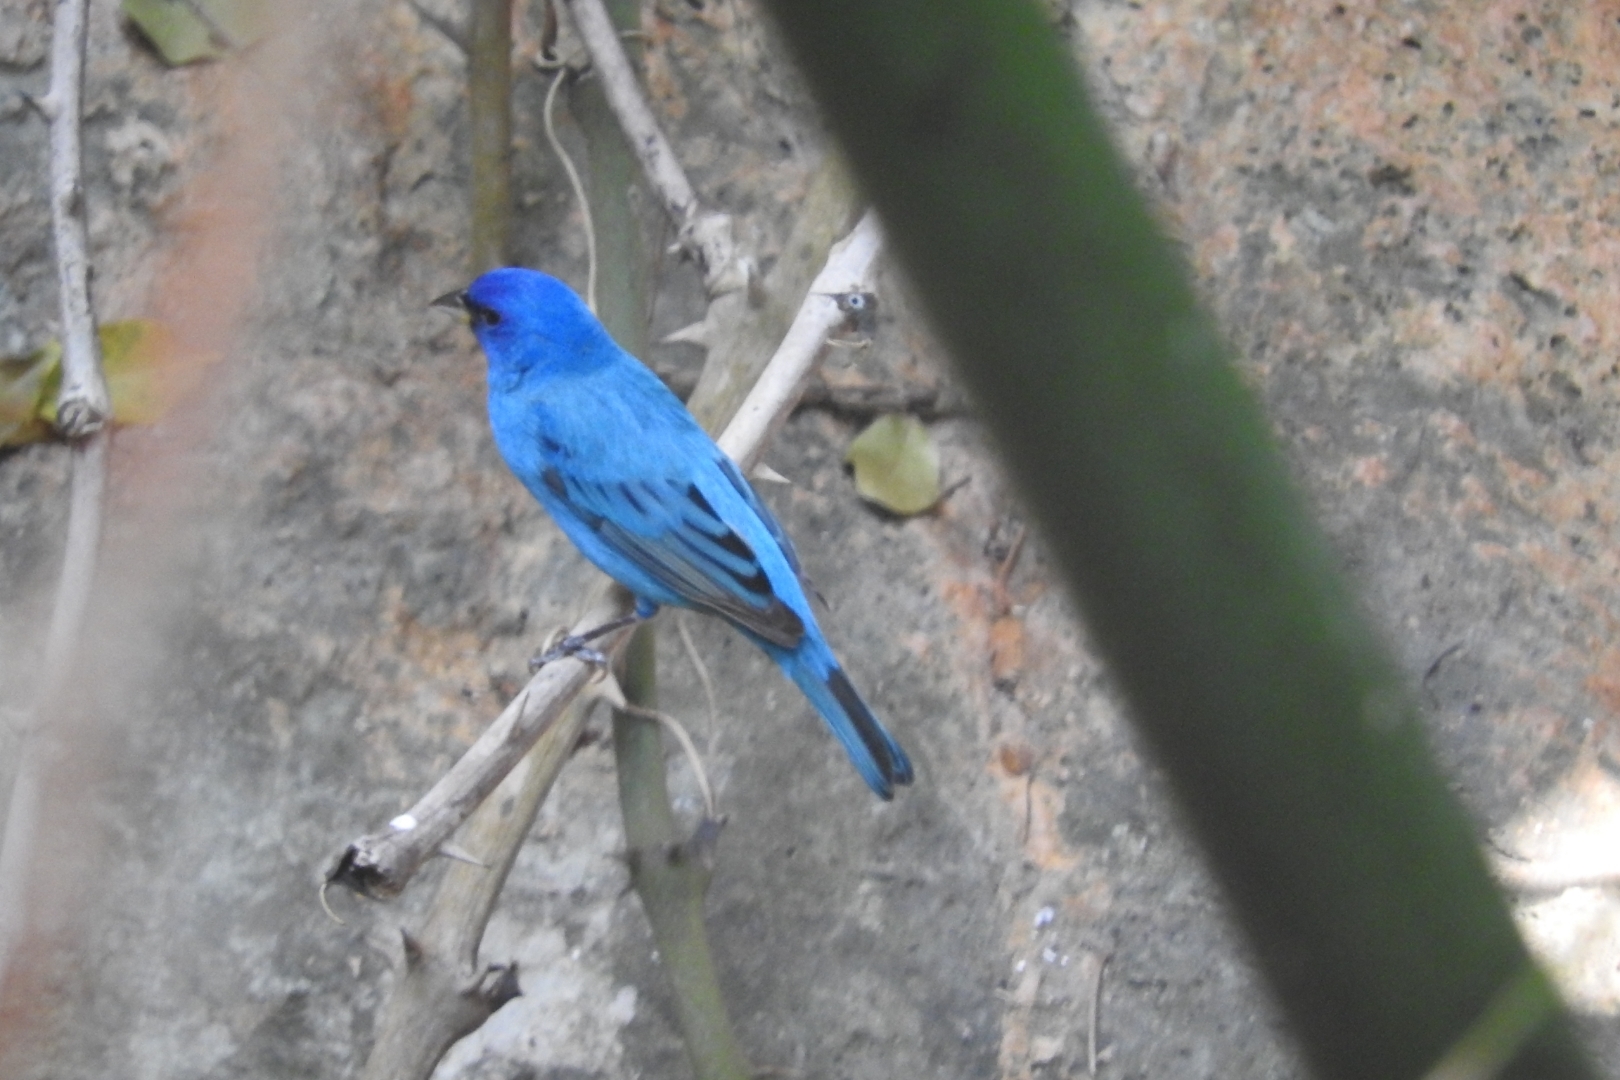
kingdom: Animalia
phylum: Chordata
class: Aves
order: Passeriformes
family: Cardinalidae
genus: Passerina
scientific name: Passerina cyanea
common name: Indigo bunting
